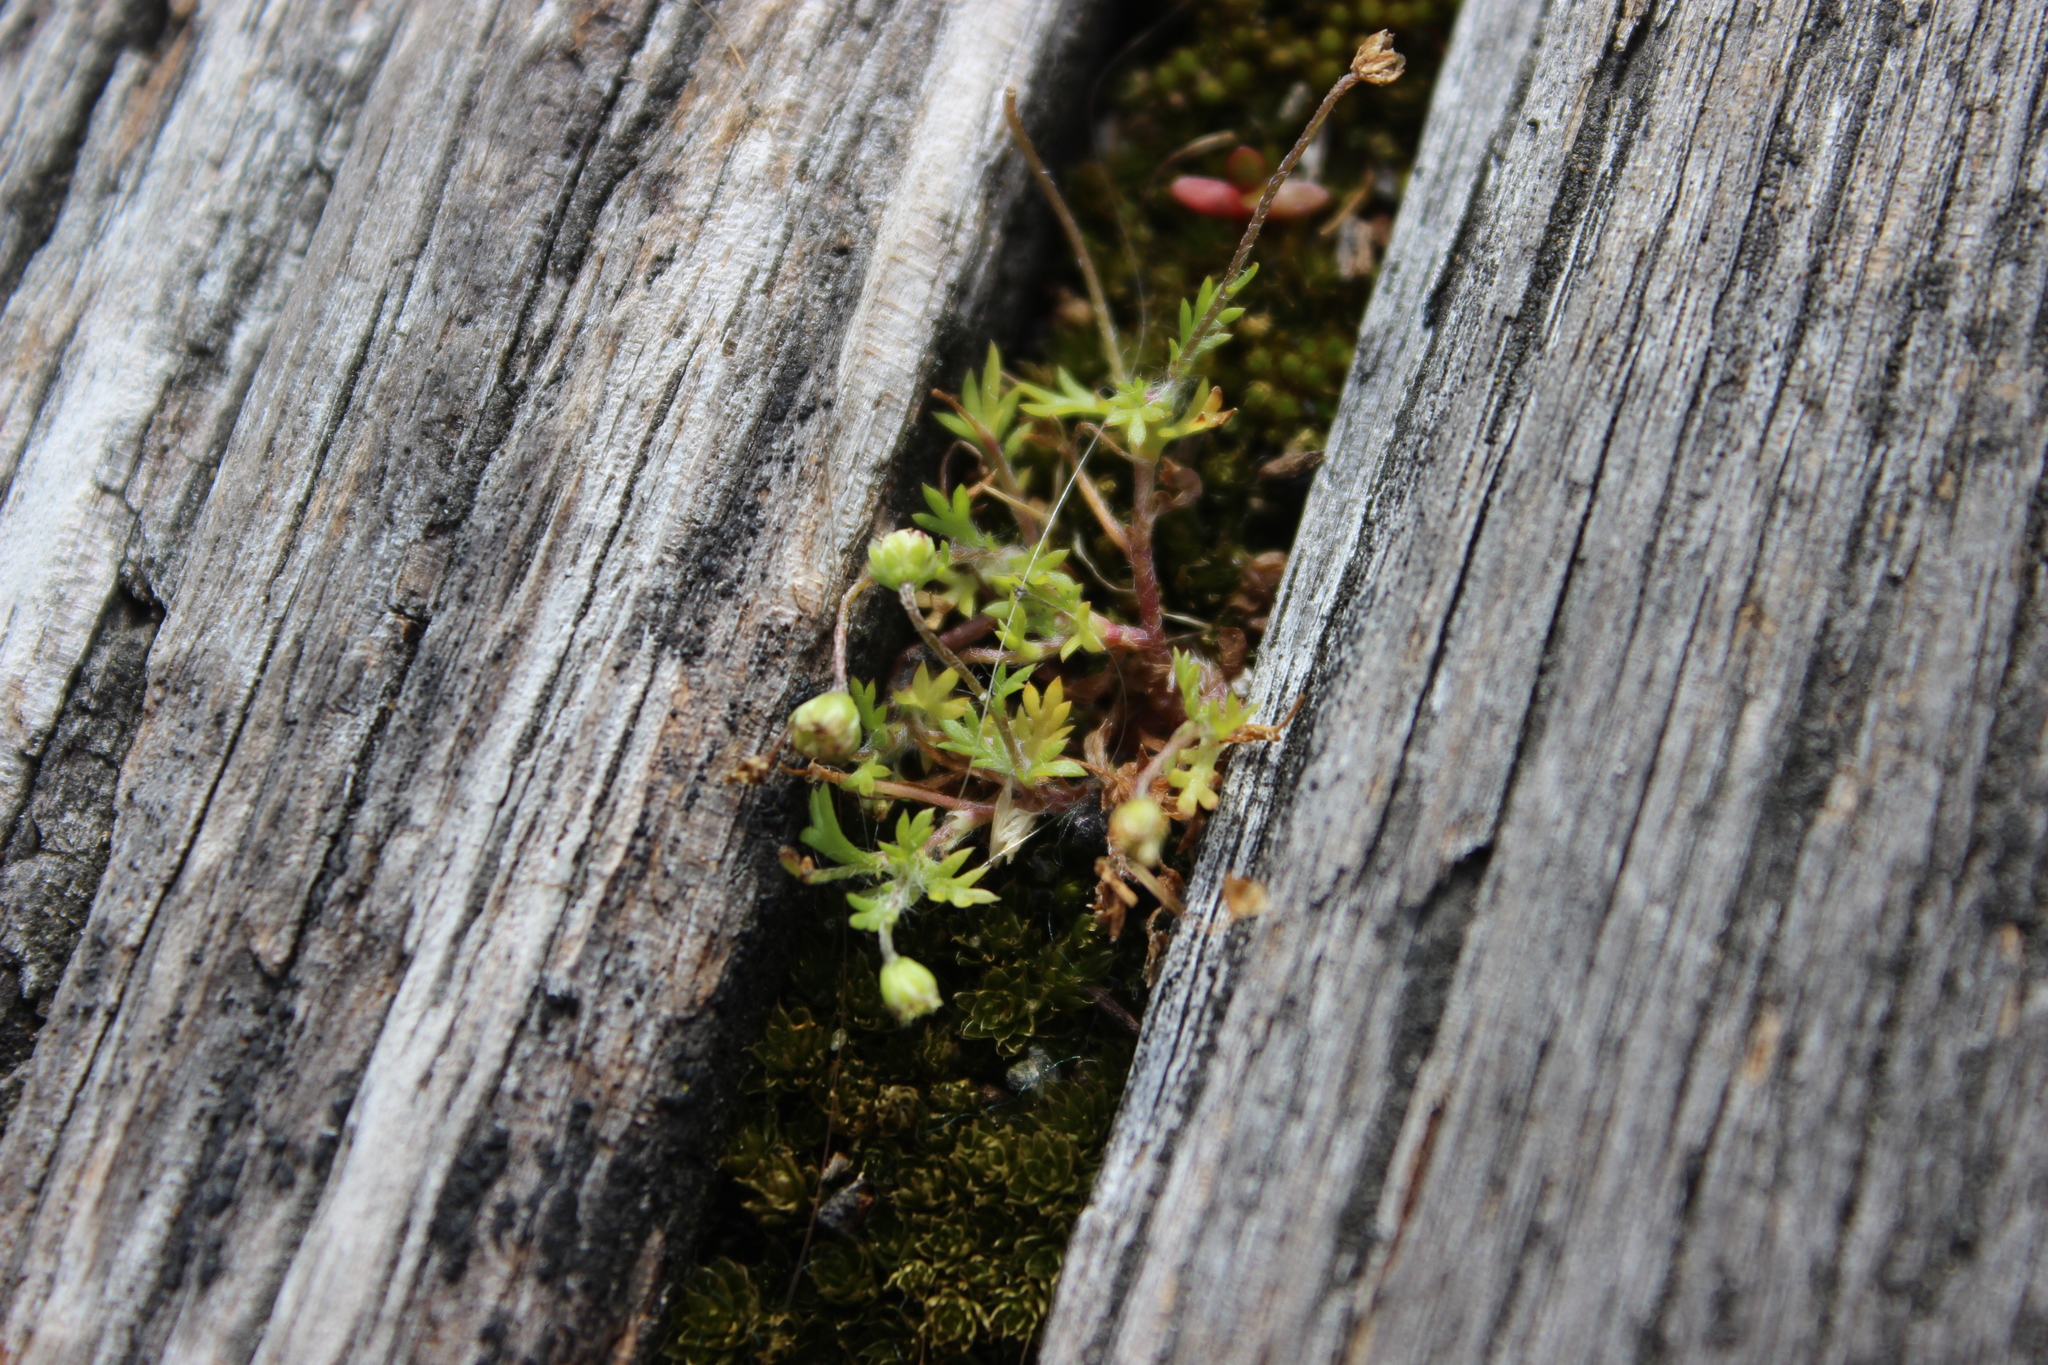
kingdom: Plantae
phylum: Tracheophyta
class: Magnoliopsida
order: Caryophyllales
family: Caryophyllaceae
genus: Sagina
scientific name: Sagina procumbens
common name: Procumbent pearlwort
